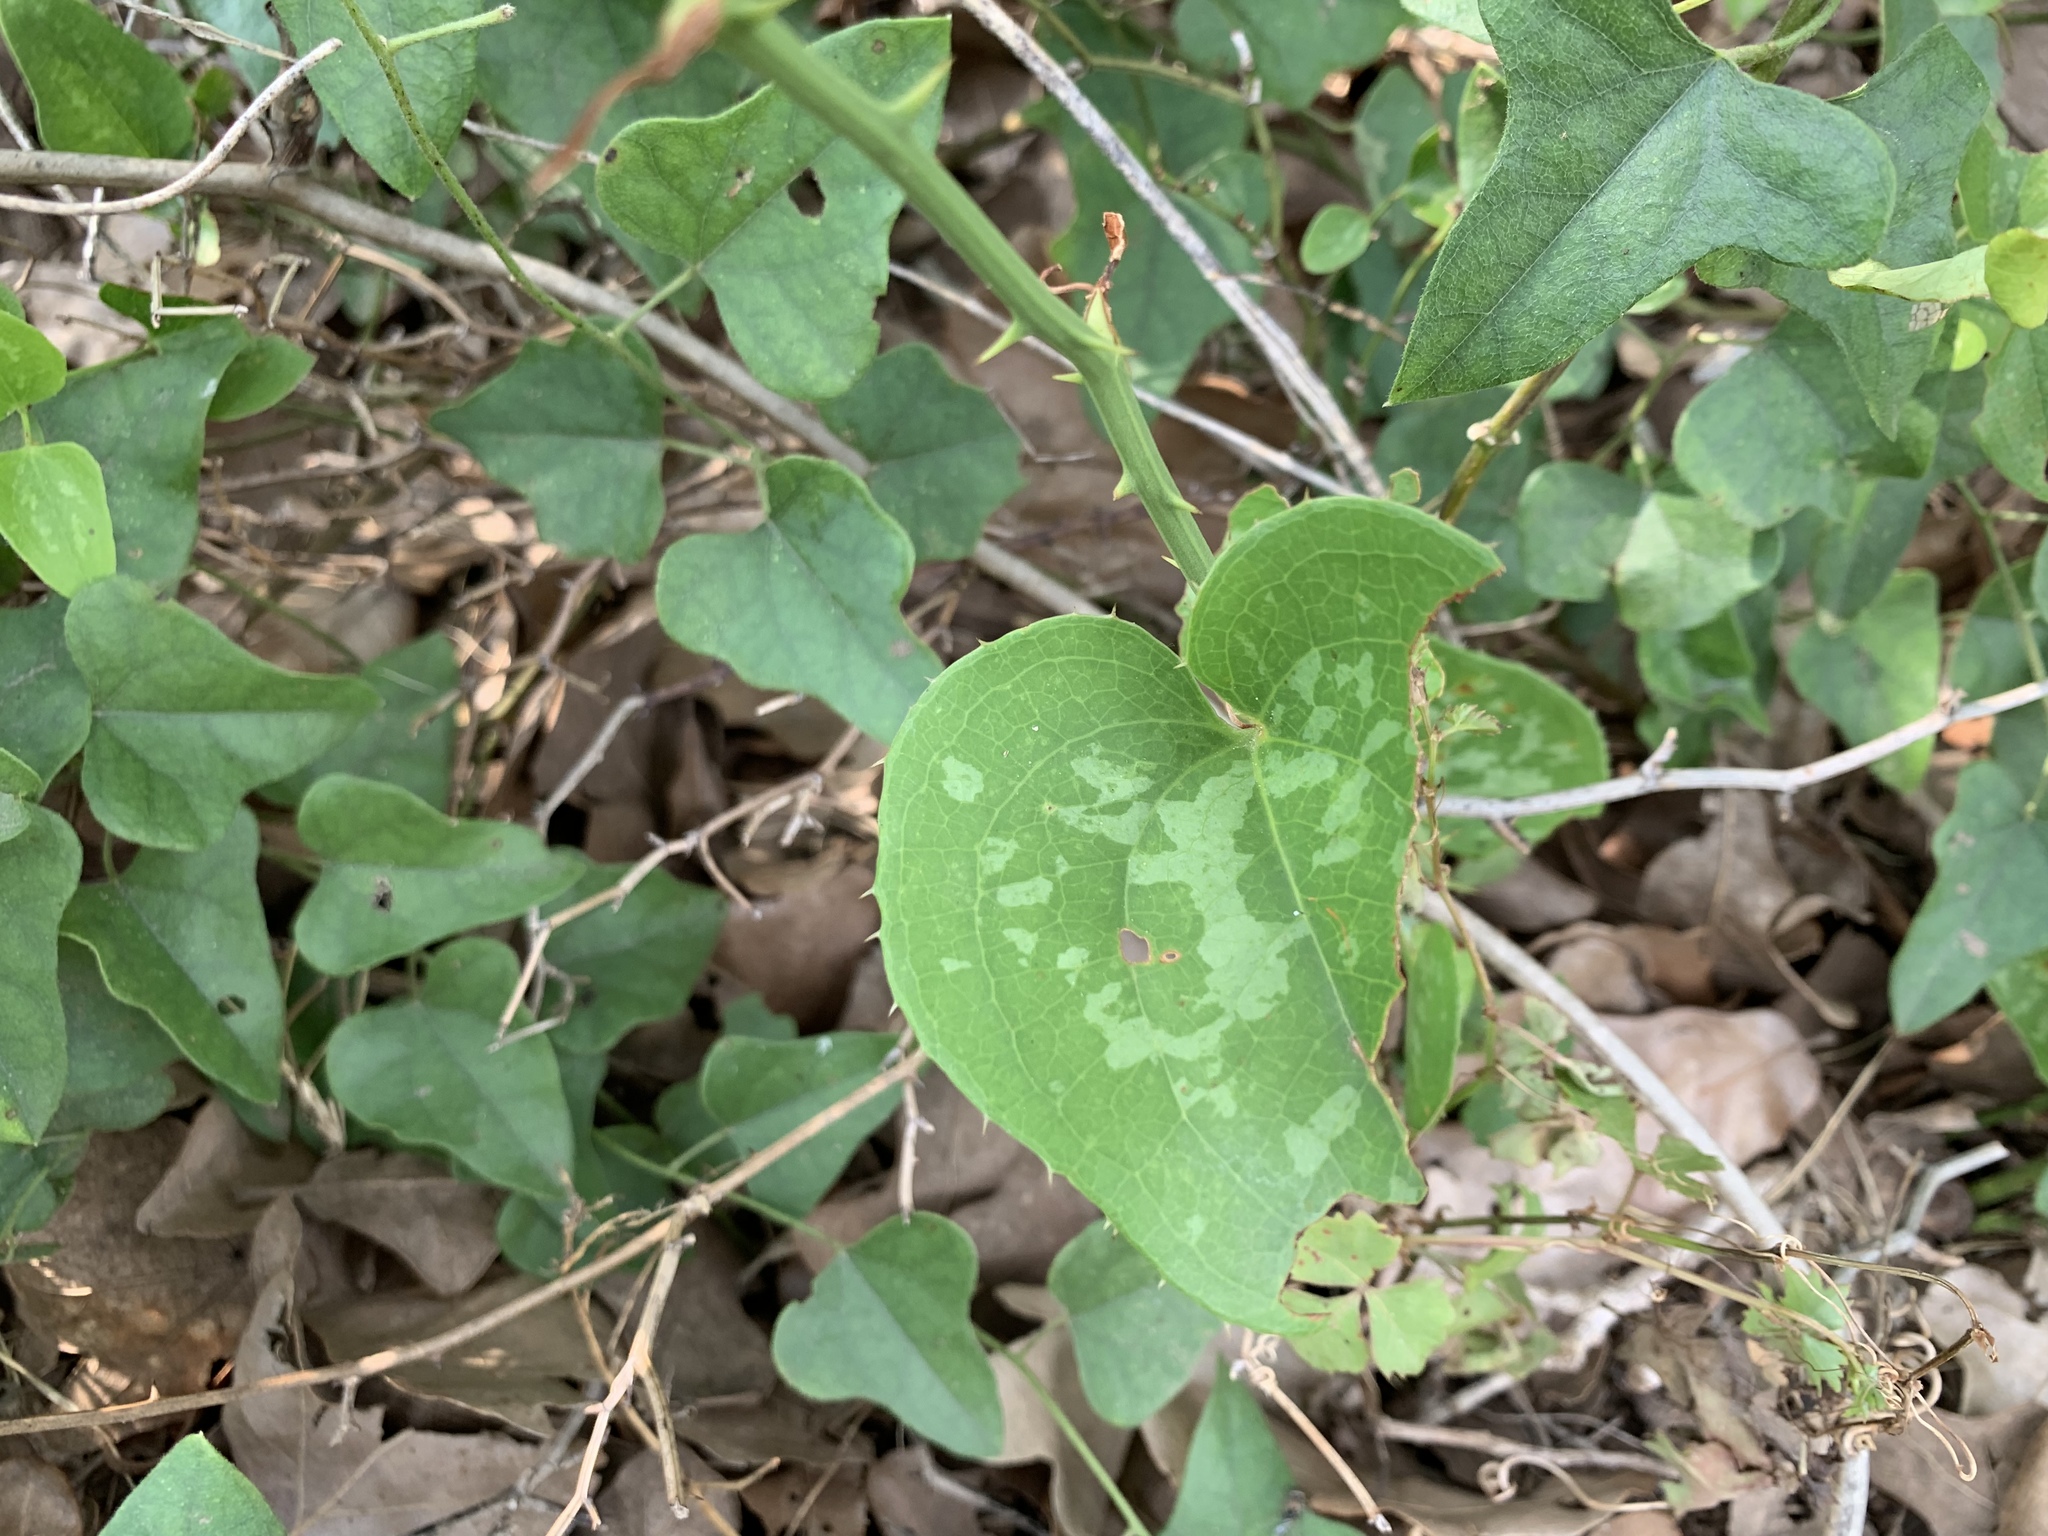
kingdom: Plantae
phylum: Tracheophyta
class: Liliopsida
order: Liliales
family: Smilacaceae
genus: Smilax
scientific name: Smilax bona-nox
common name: Catbrier
